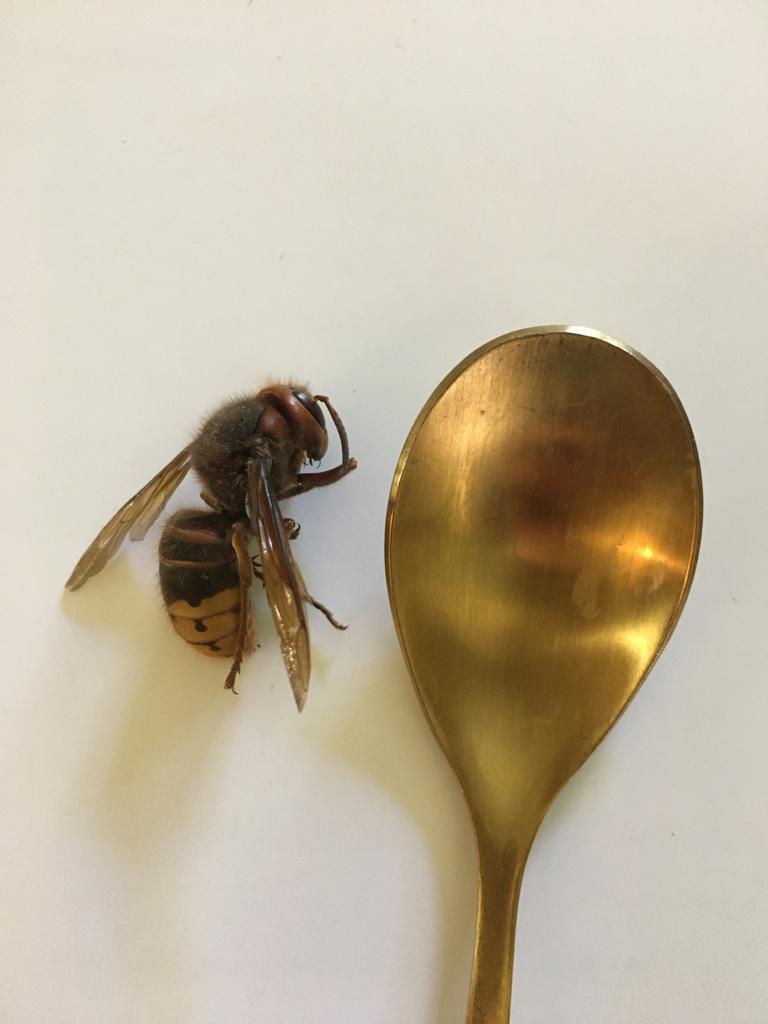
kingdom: Animalia
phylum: Arthropoda
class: Insecta
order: Hymenoptera
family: Vespidae
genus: Vespa
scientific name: Vespa crabro
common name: Hornet
